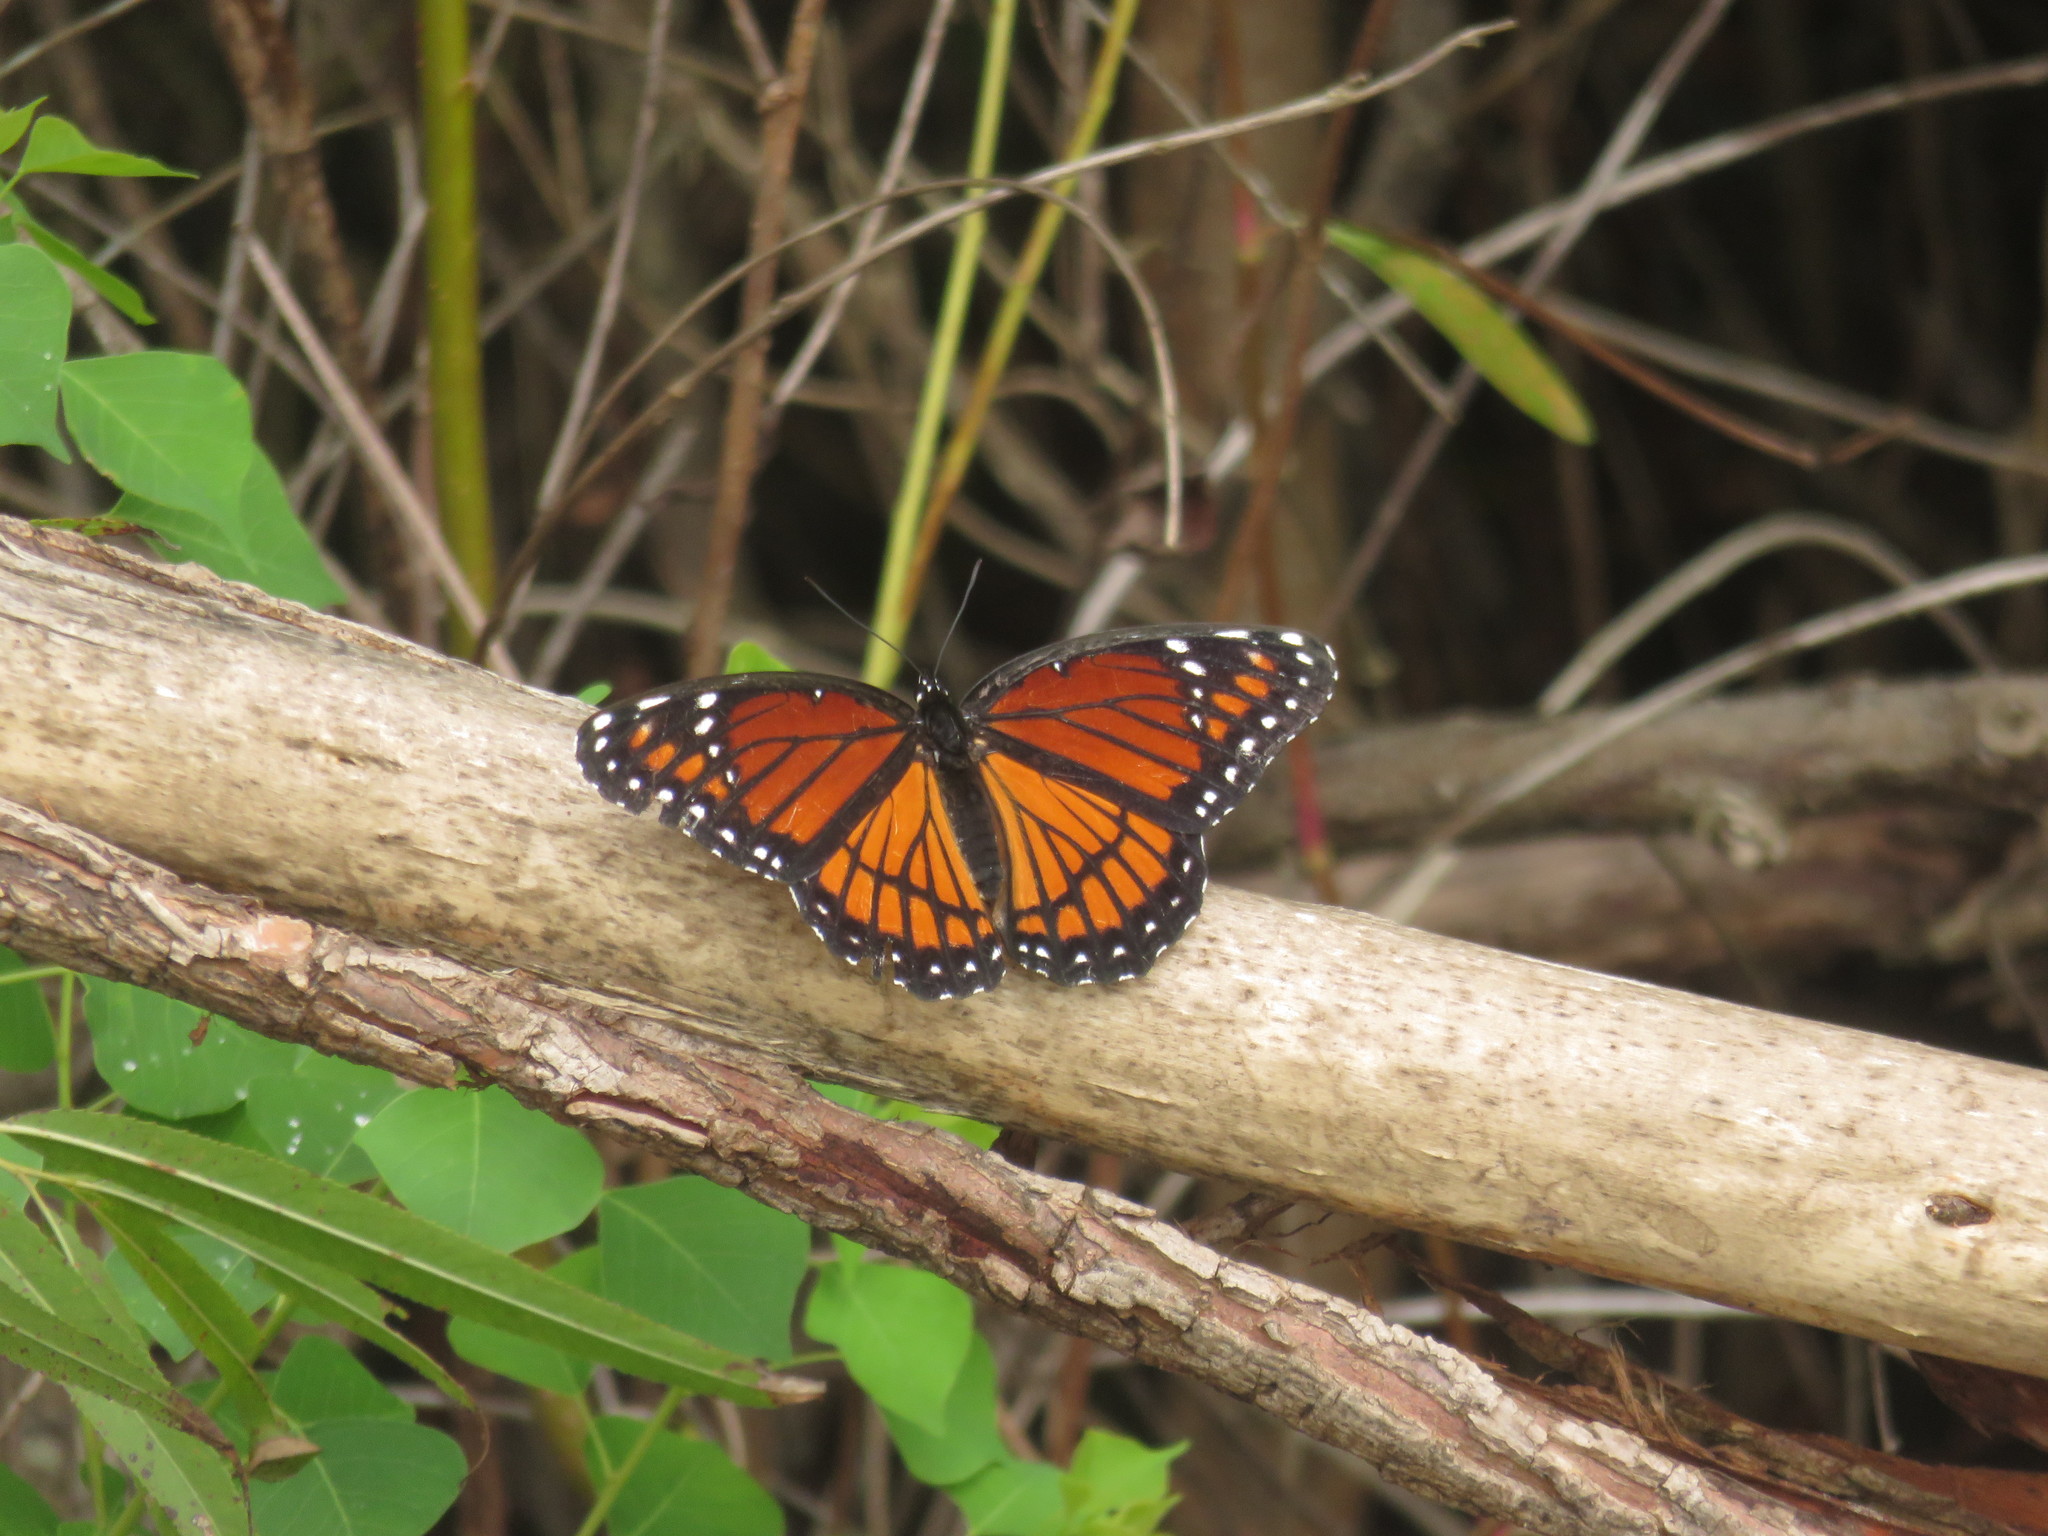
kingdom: Animalia
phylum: Arthropoda
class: Insecta
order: Lepidoptera
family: Nymphalidae
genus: Limenitis
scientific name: Limenitis archippus
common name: Viceroy
